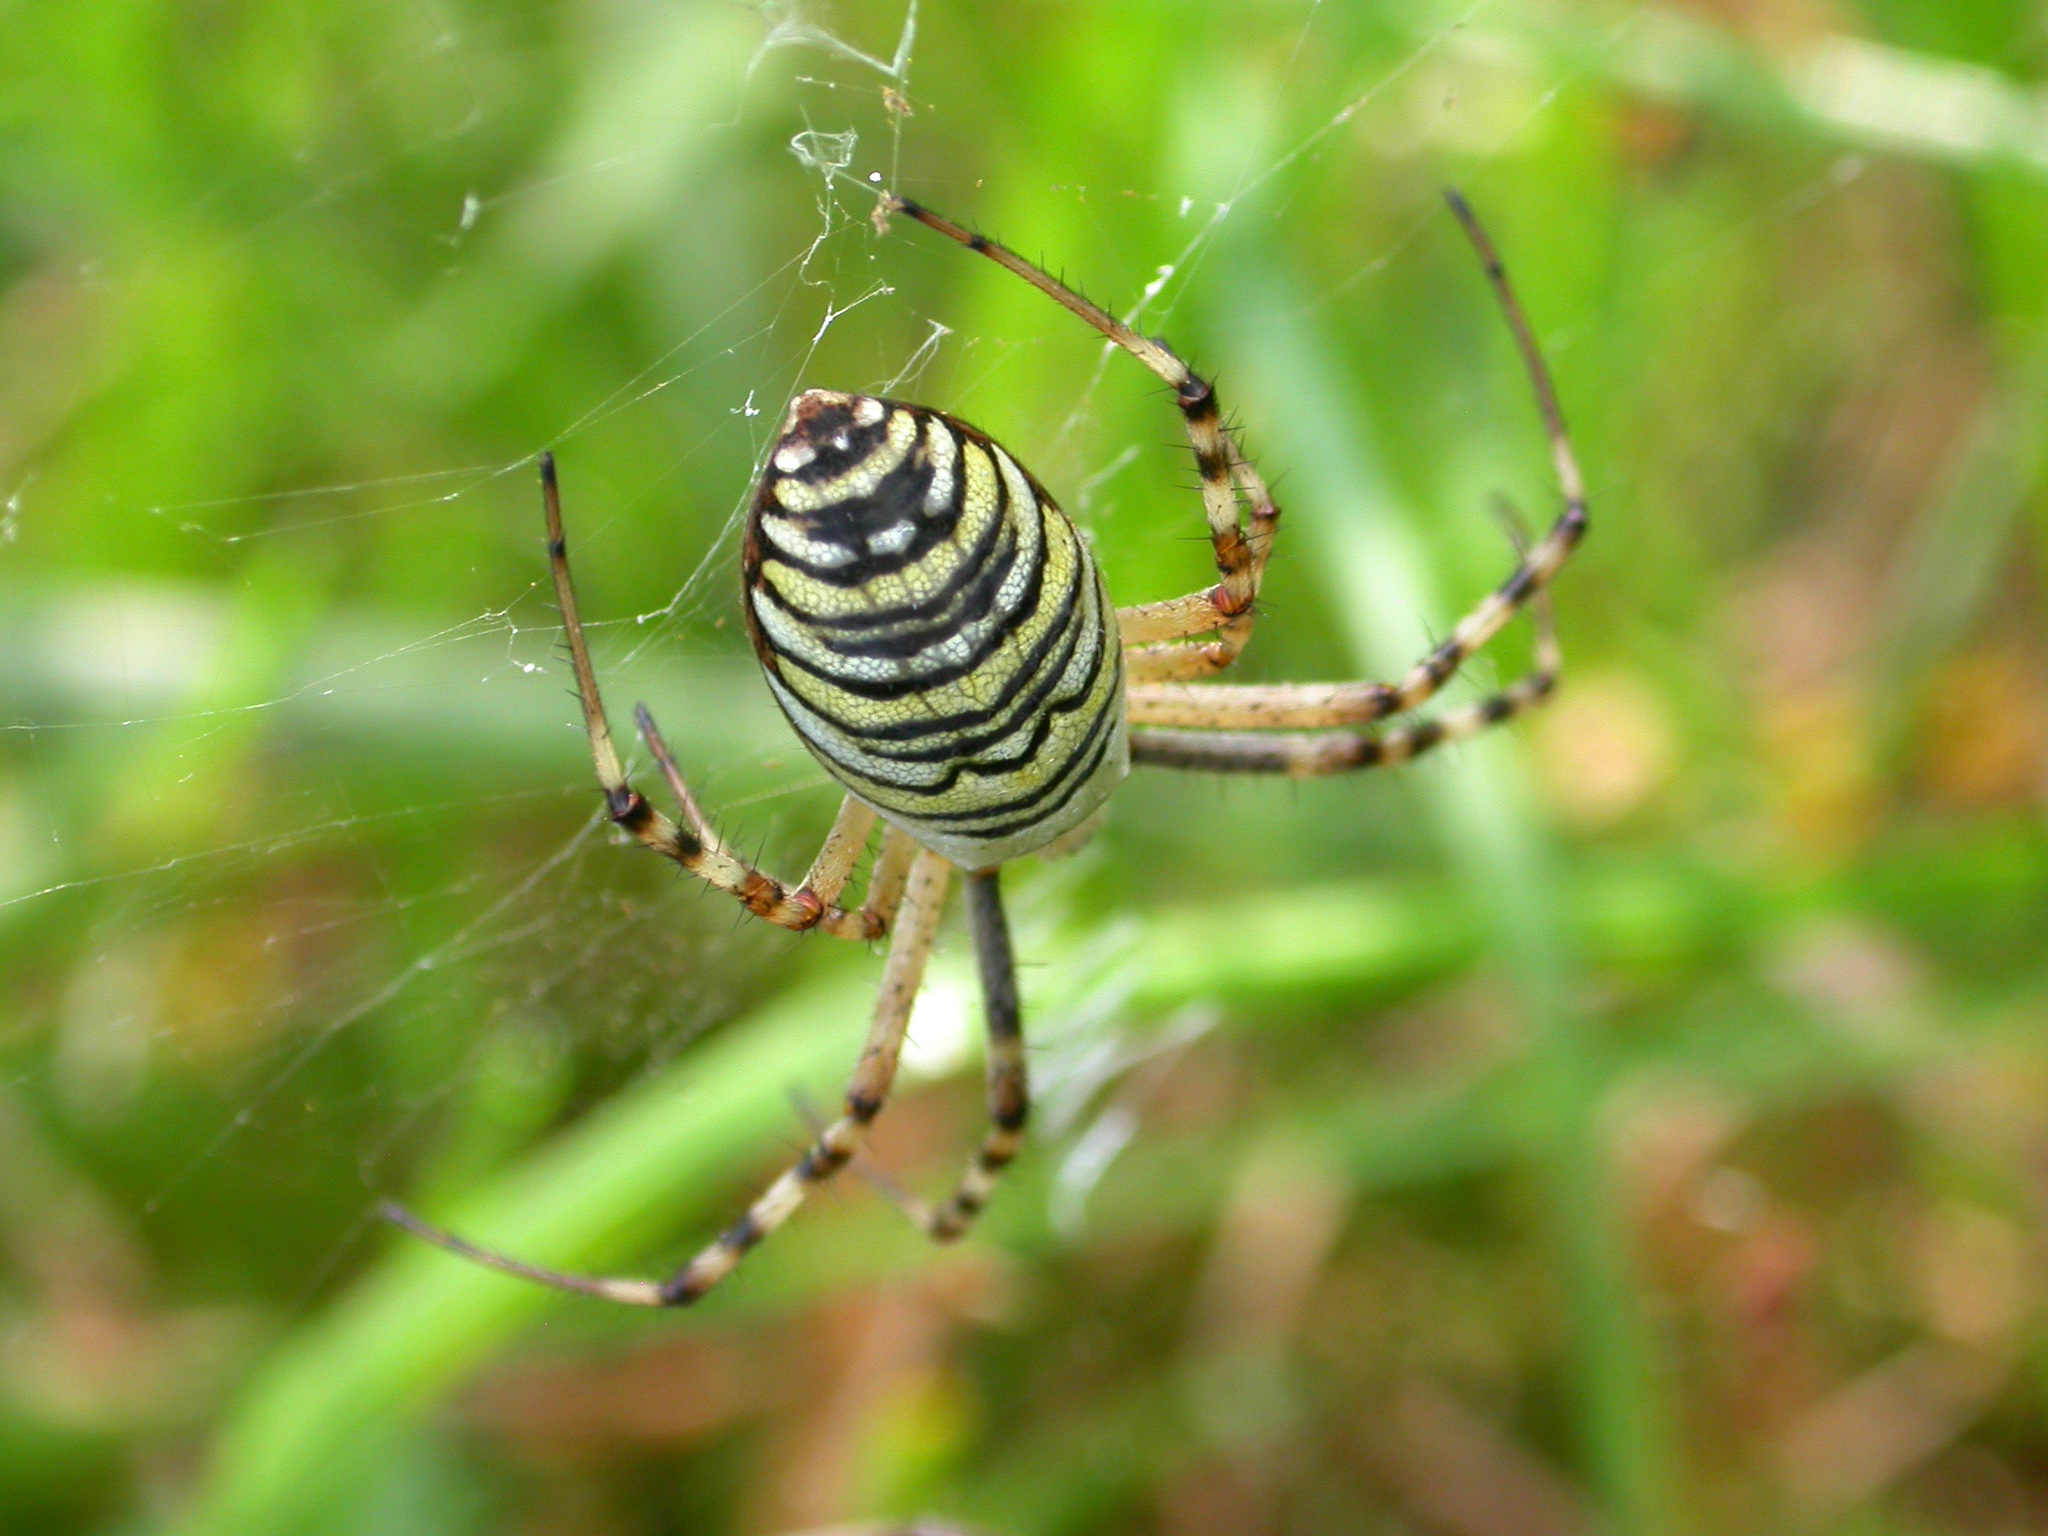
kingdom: Animalia
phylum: Arthropoda
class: Arachnida
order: Araneae
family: Araneidae
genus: Argiope
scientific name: Argiope bruennichi
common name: Wasp spider
